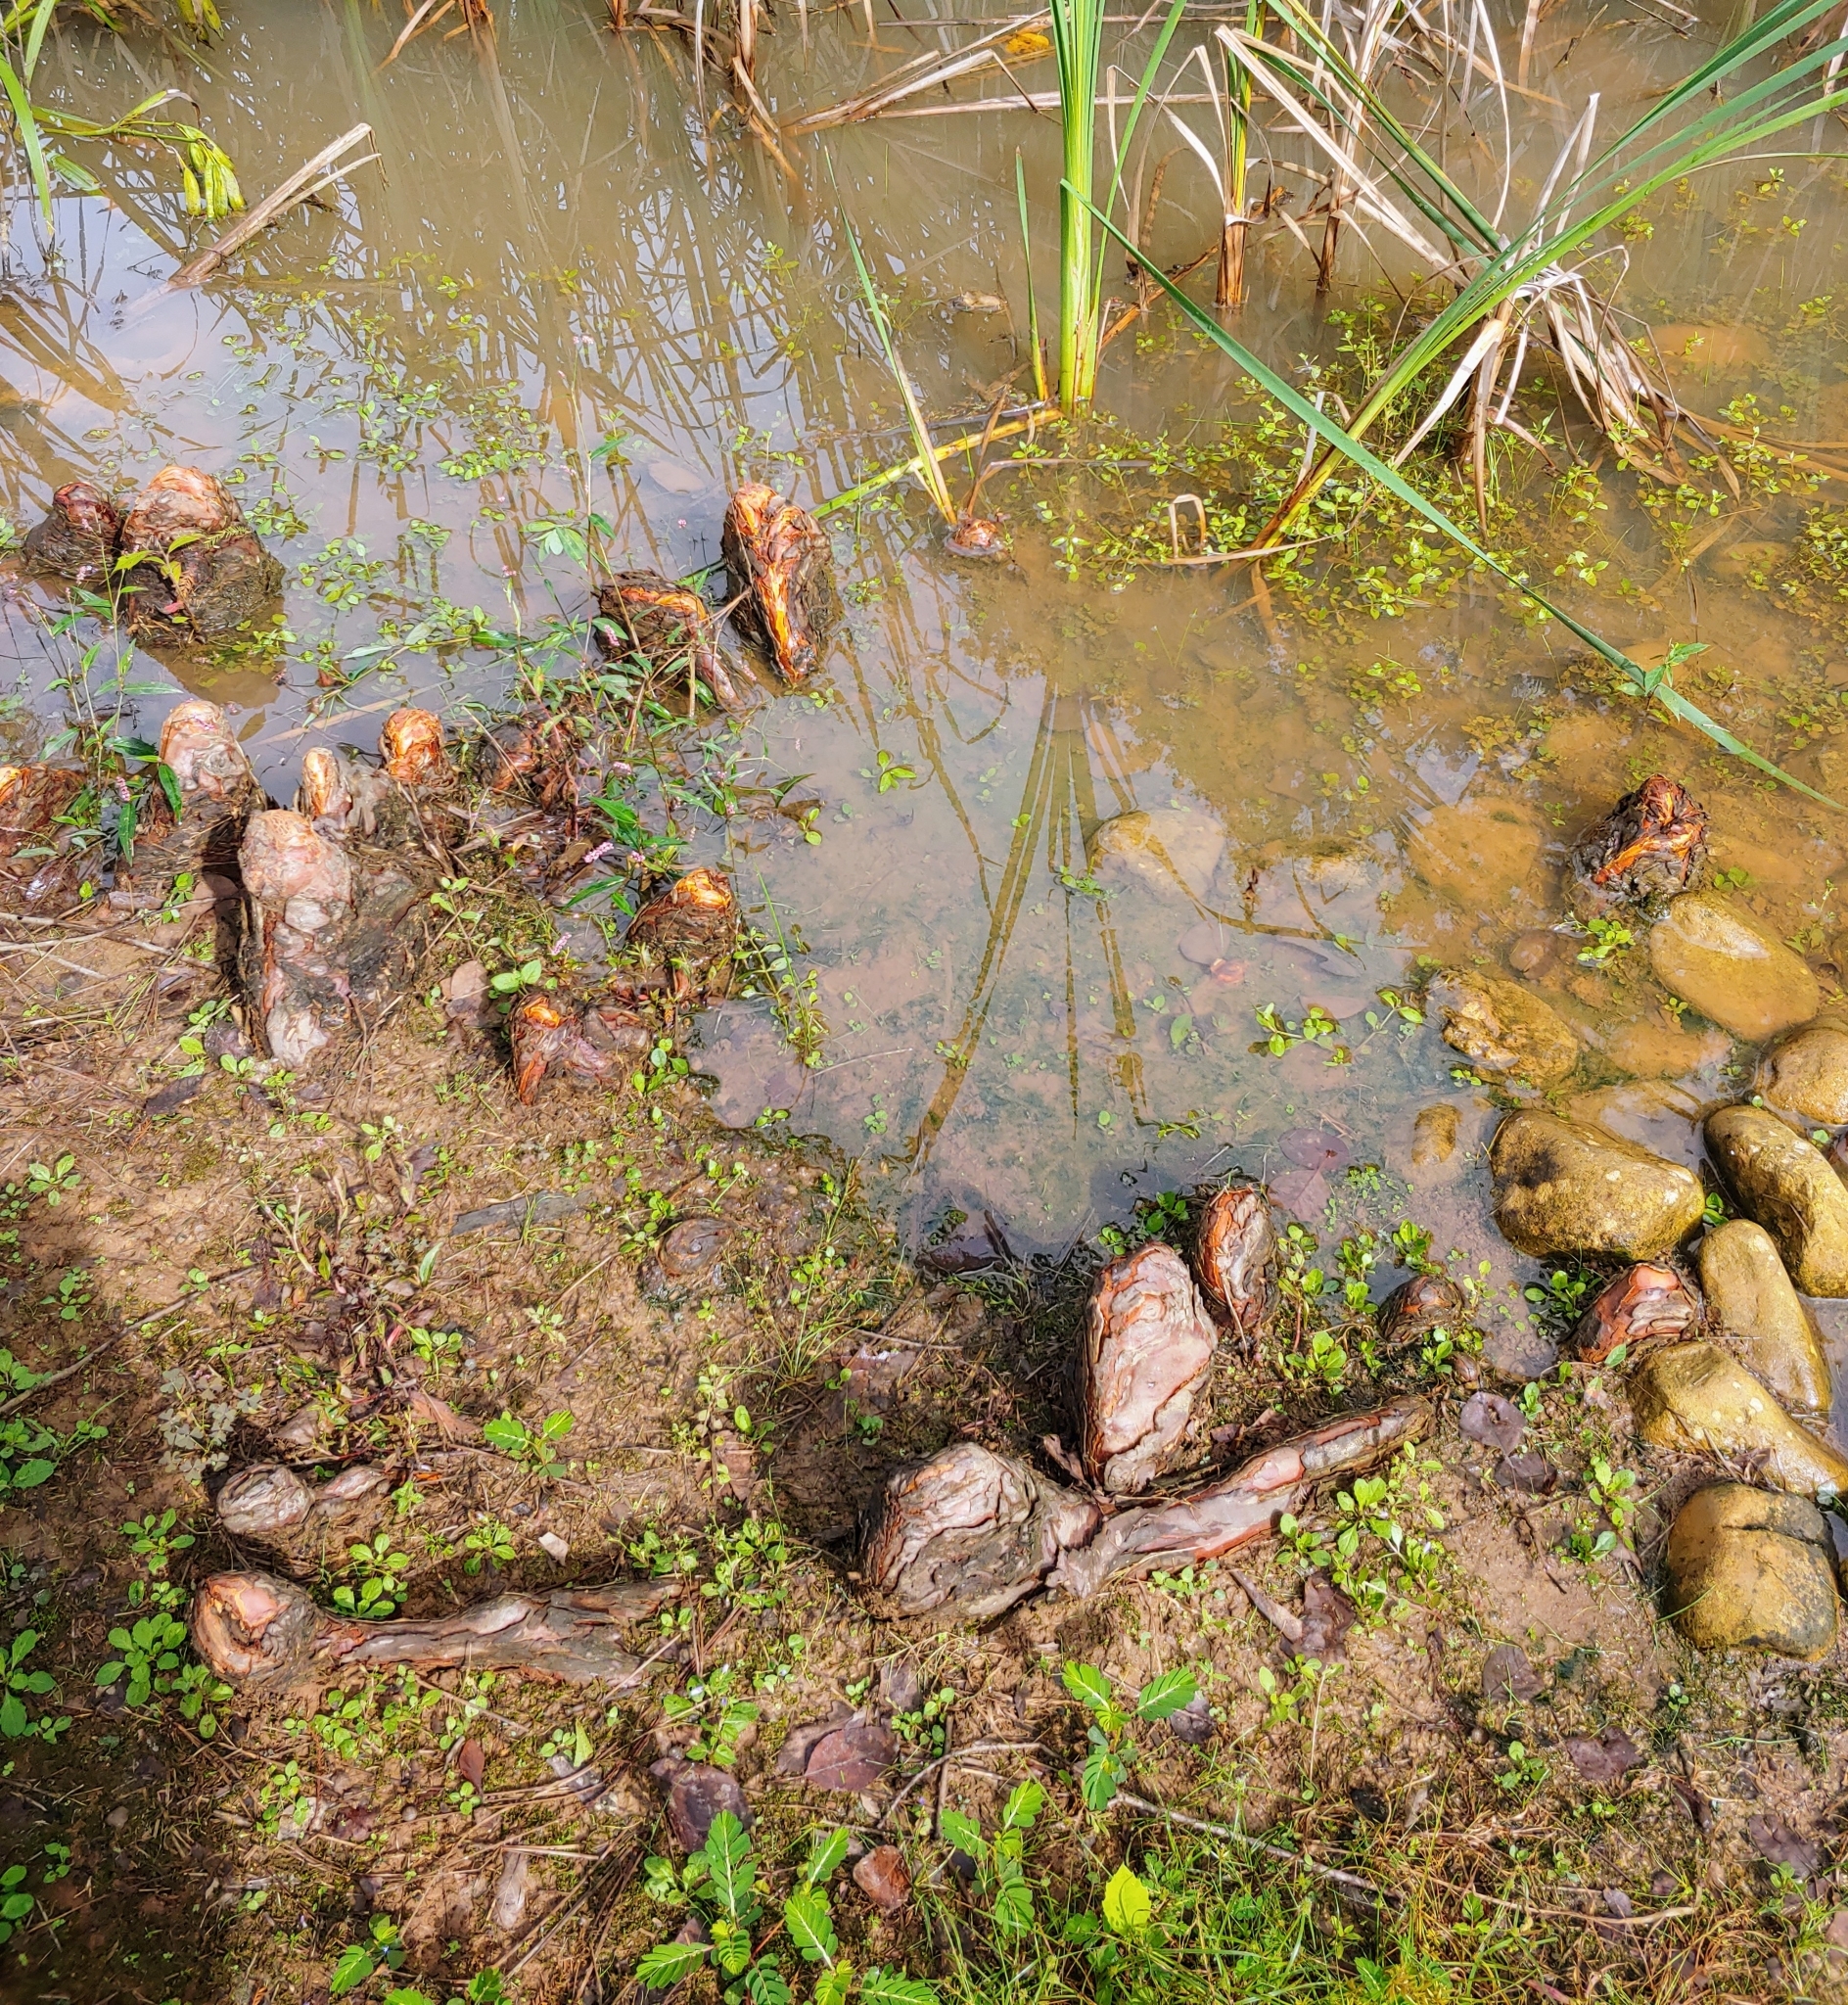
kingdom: Plantae
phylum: Tracheophyta
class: Pinopsida
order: Pinales
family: Cupressaceae
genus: Taxodium
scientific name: Taxodium distichum
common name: Bald cypress
